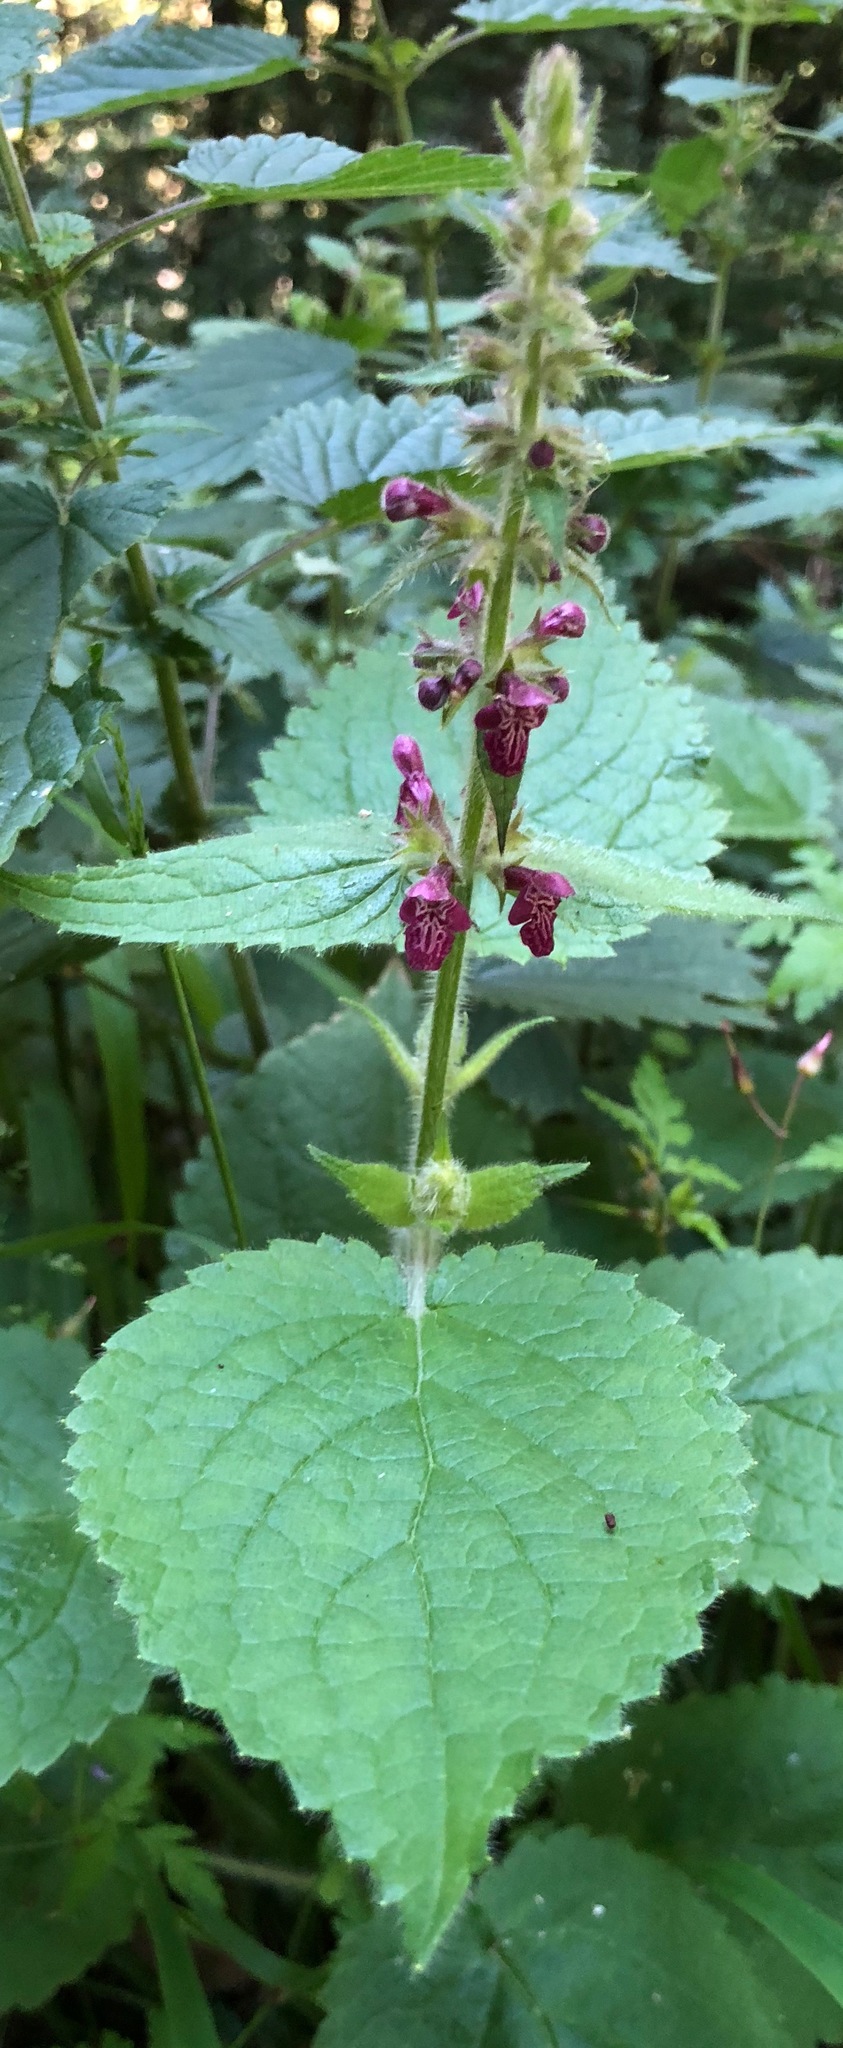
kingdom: Plantae
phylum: Tracheophyta
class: Magnoliopsida
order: Lamiales
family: Lamiaceae
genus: Stachys
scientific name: Stachys sylvatica
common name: Hedge woundwort
